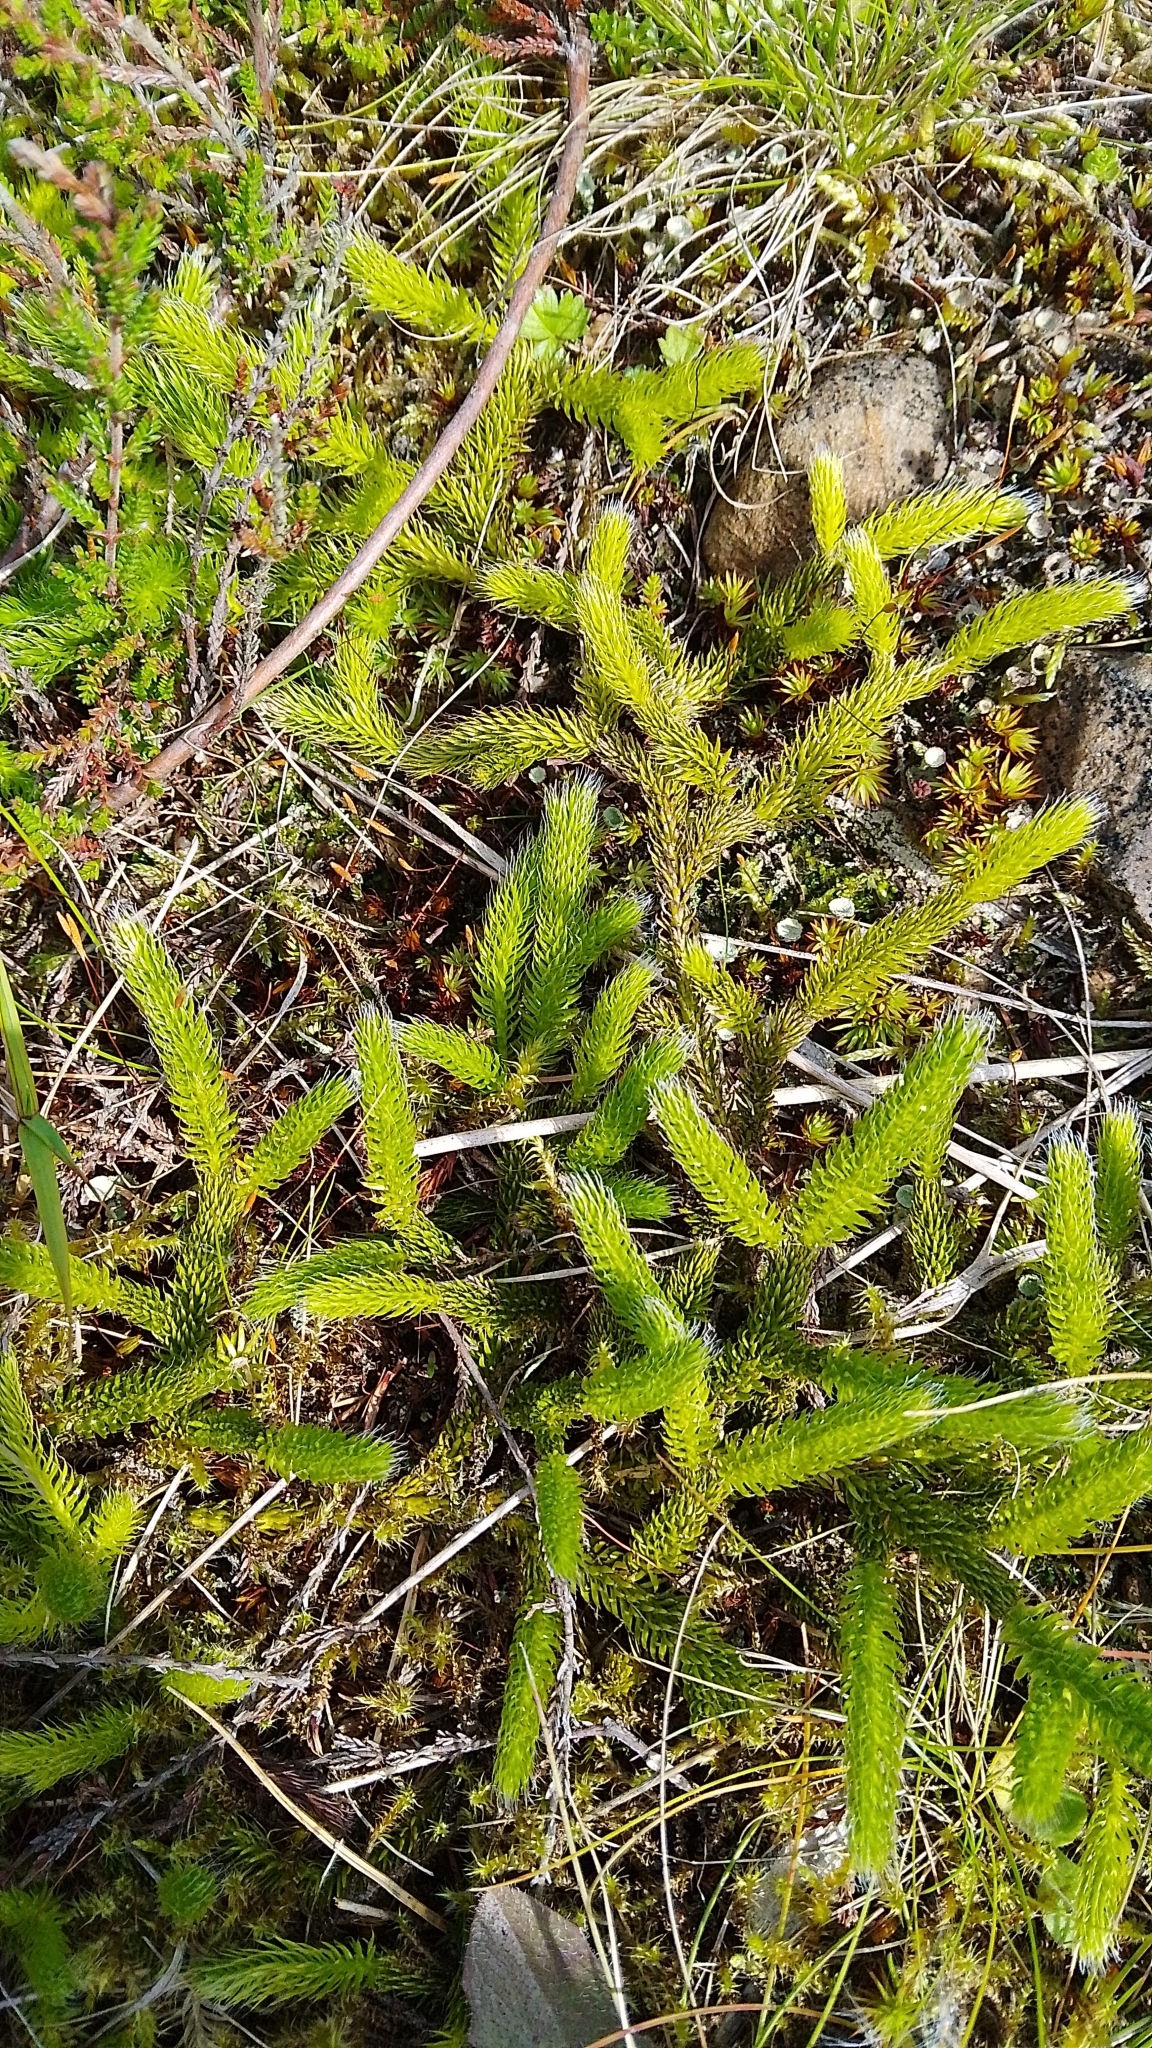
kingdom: Plantae
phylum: Tracheophyta
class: Lycopodiopsida
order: Lycopodiales
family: Lycopodiaceae
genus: Lycopodium
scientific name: Lycopodium clavatum
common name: Stag's-horn clubmoss
